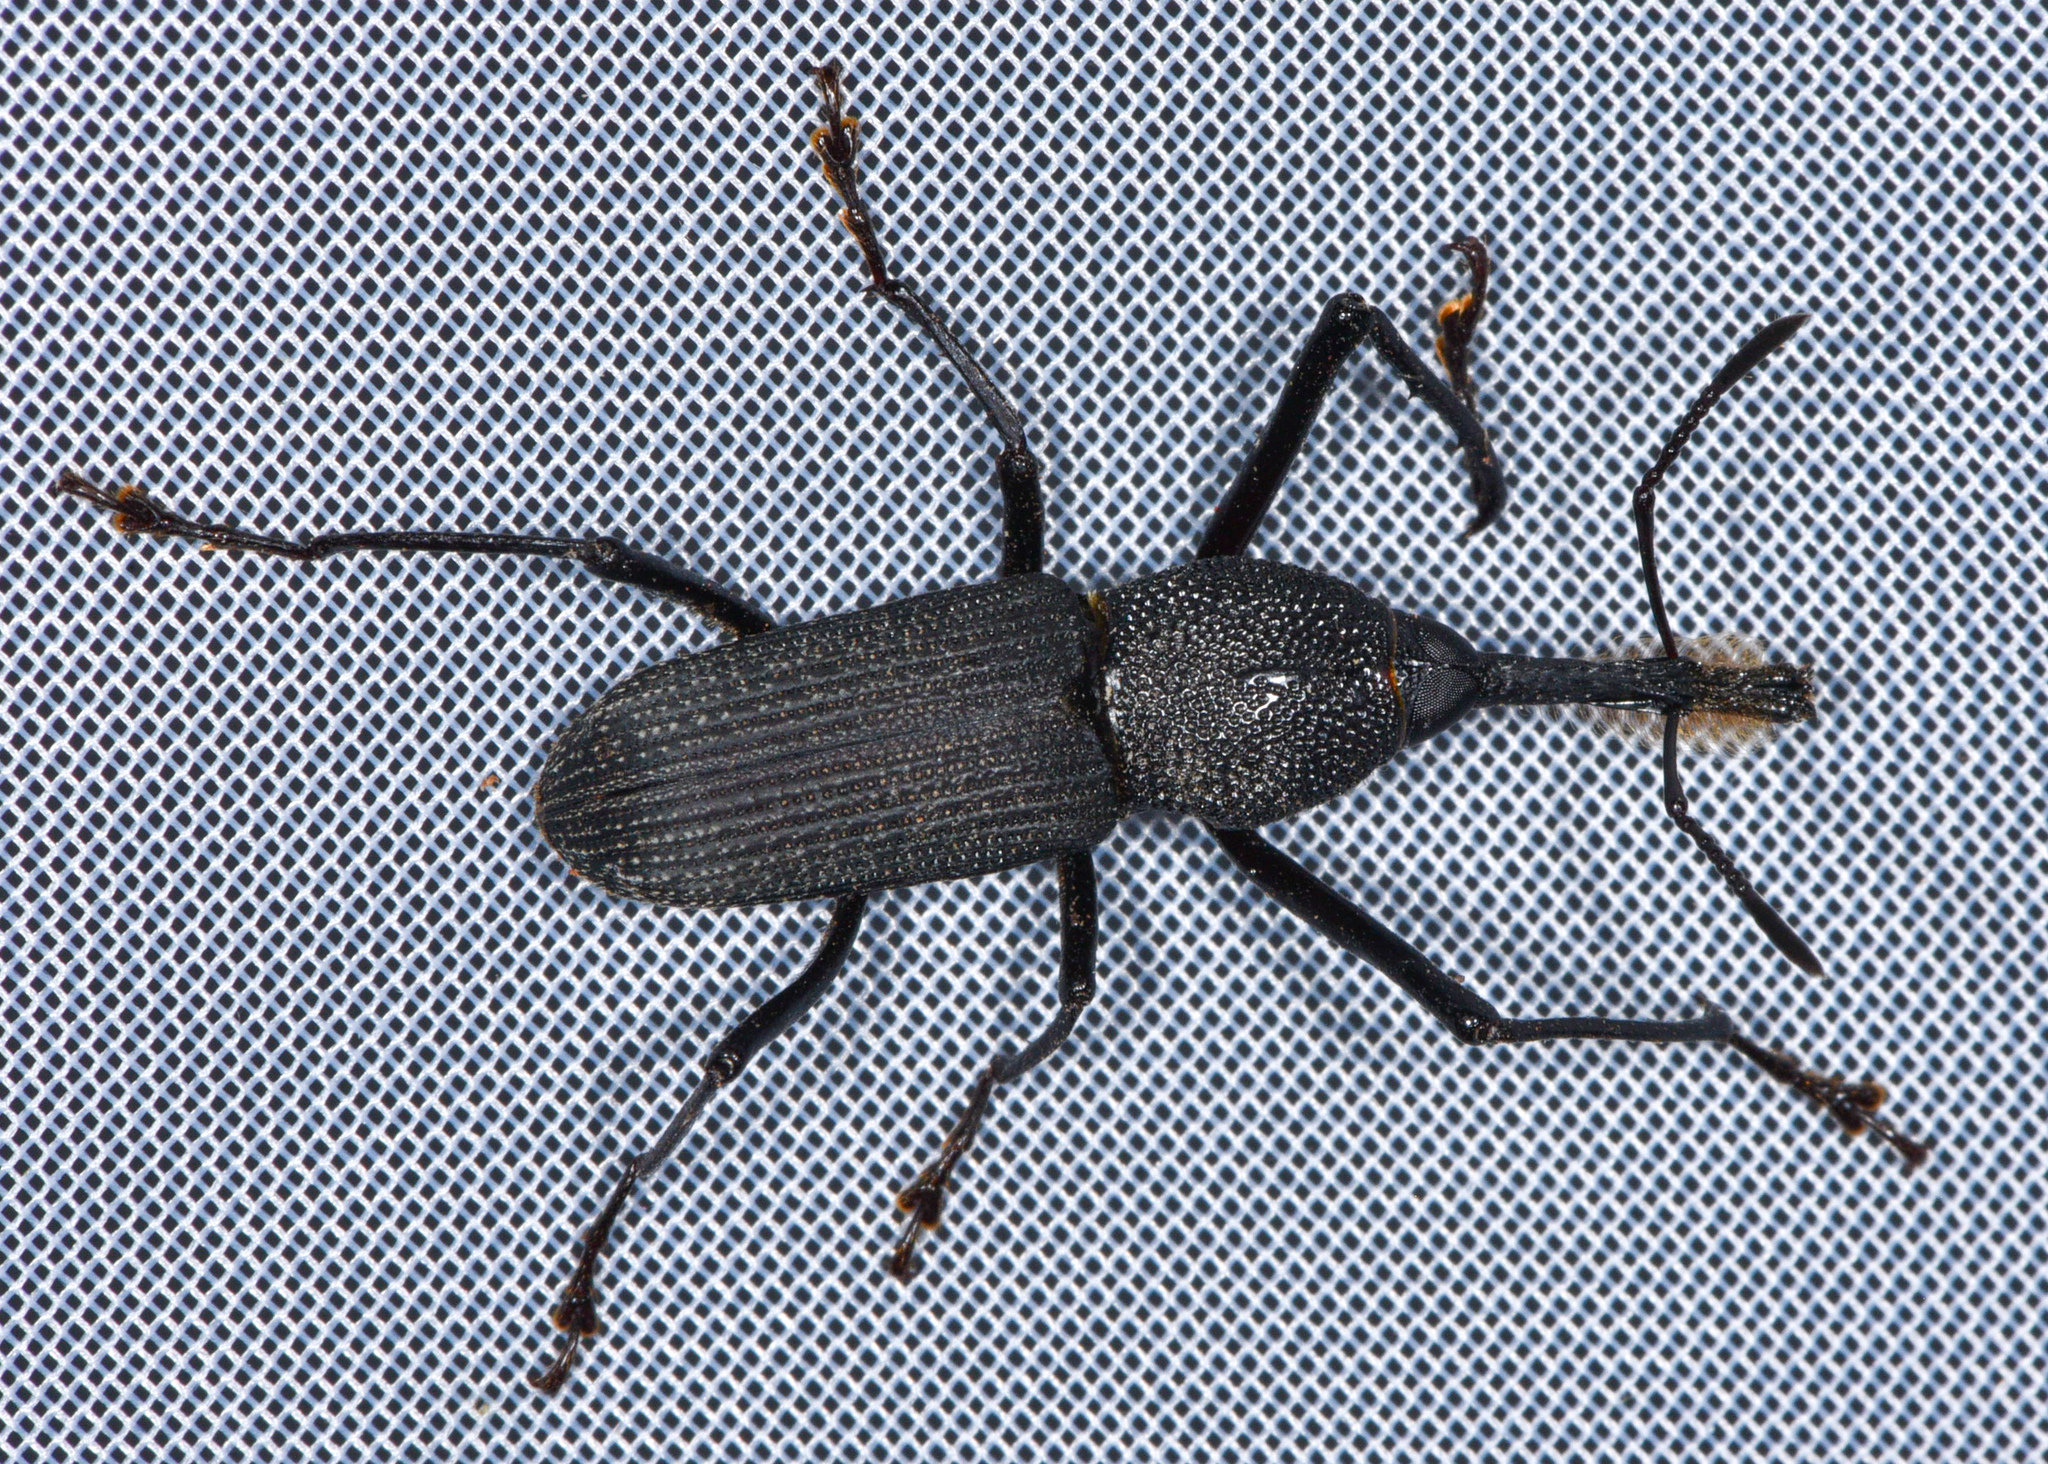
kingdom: Animalia
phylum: Arthropoda
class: Insecta
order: Coleoptera
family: Dryophthoridae
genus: Rhinostomus
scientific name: Rhinostomus barbirostris
